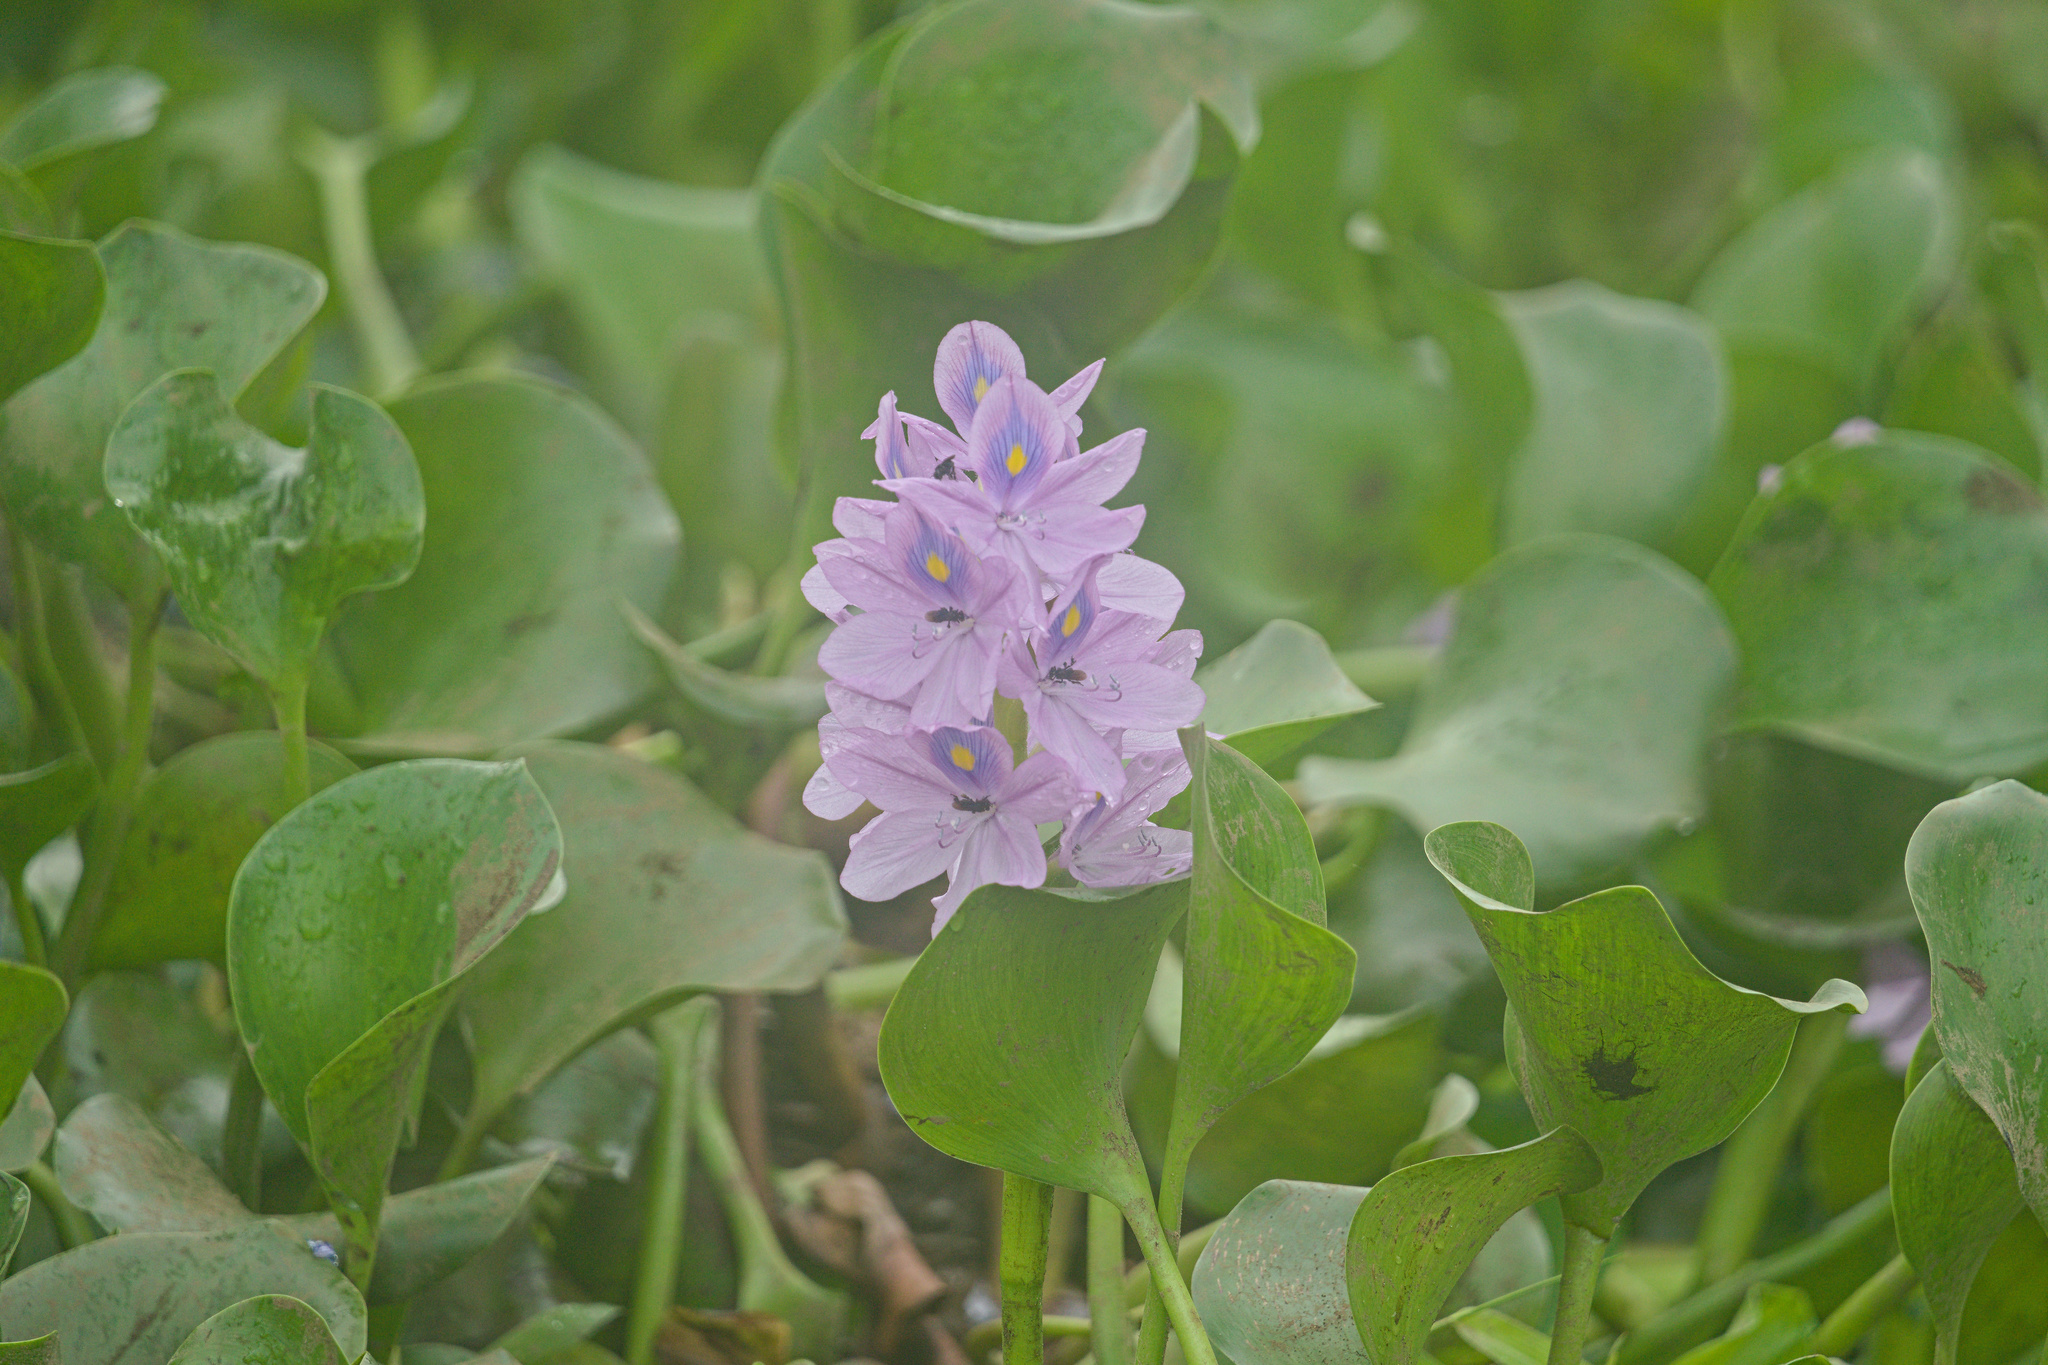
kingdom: Plantae
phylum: Tracheophyta
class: Liliopsida
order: Commelinales
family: Pontederiaceae
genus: Pontederia
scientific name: Pontederia crassipes
